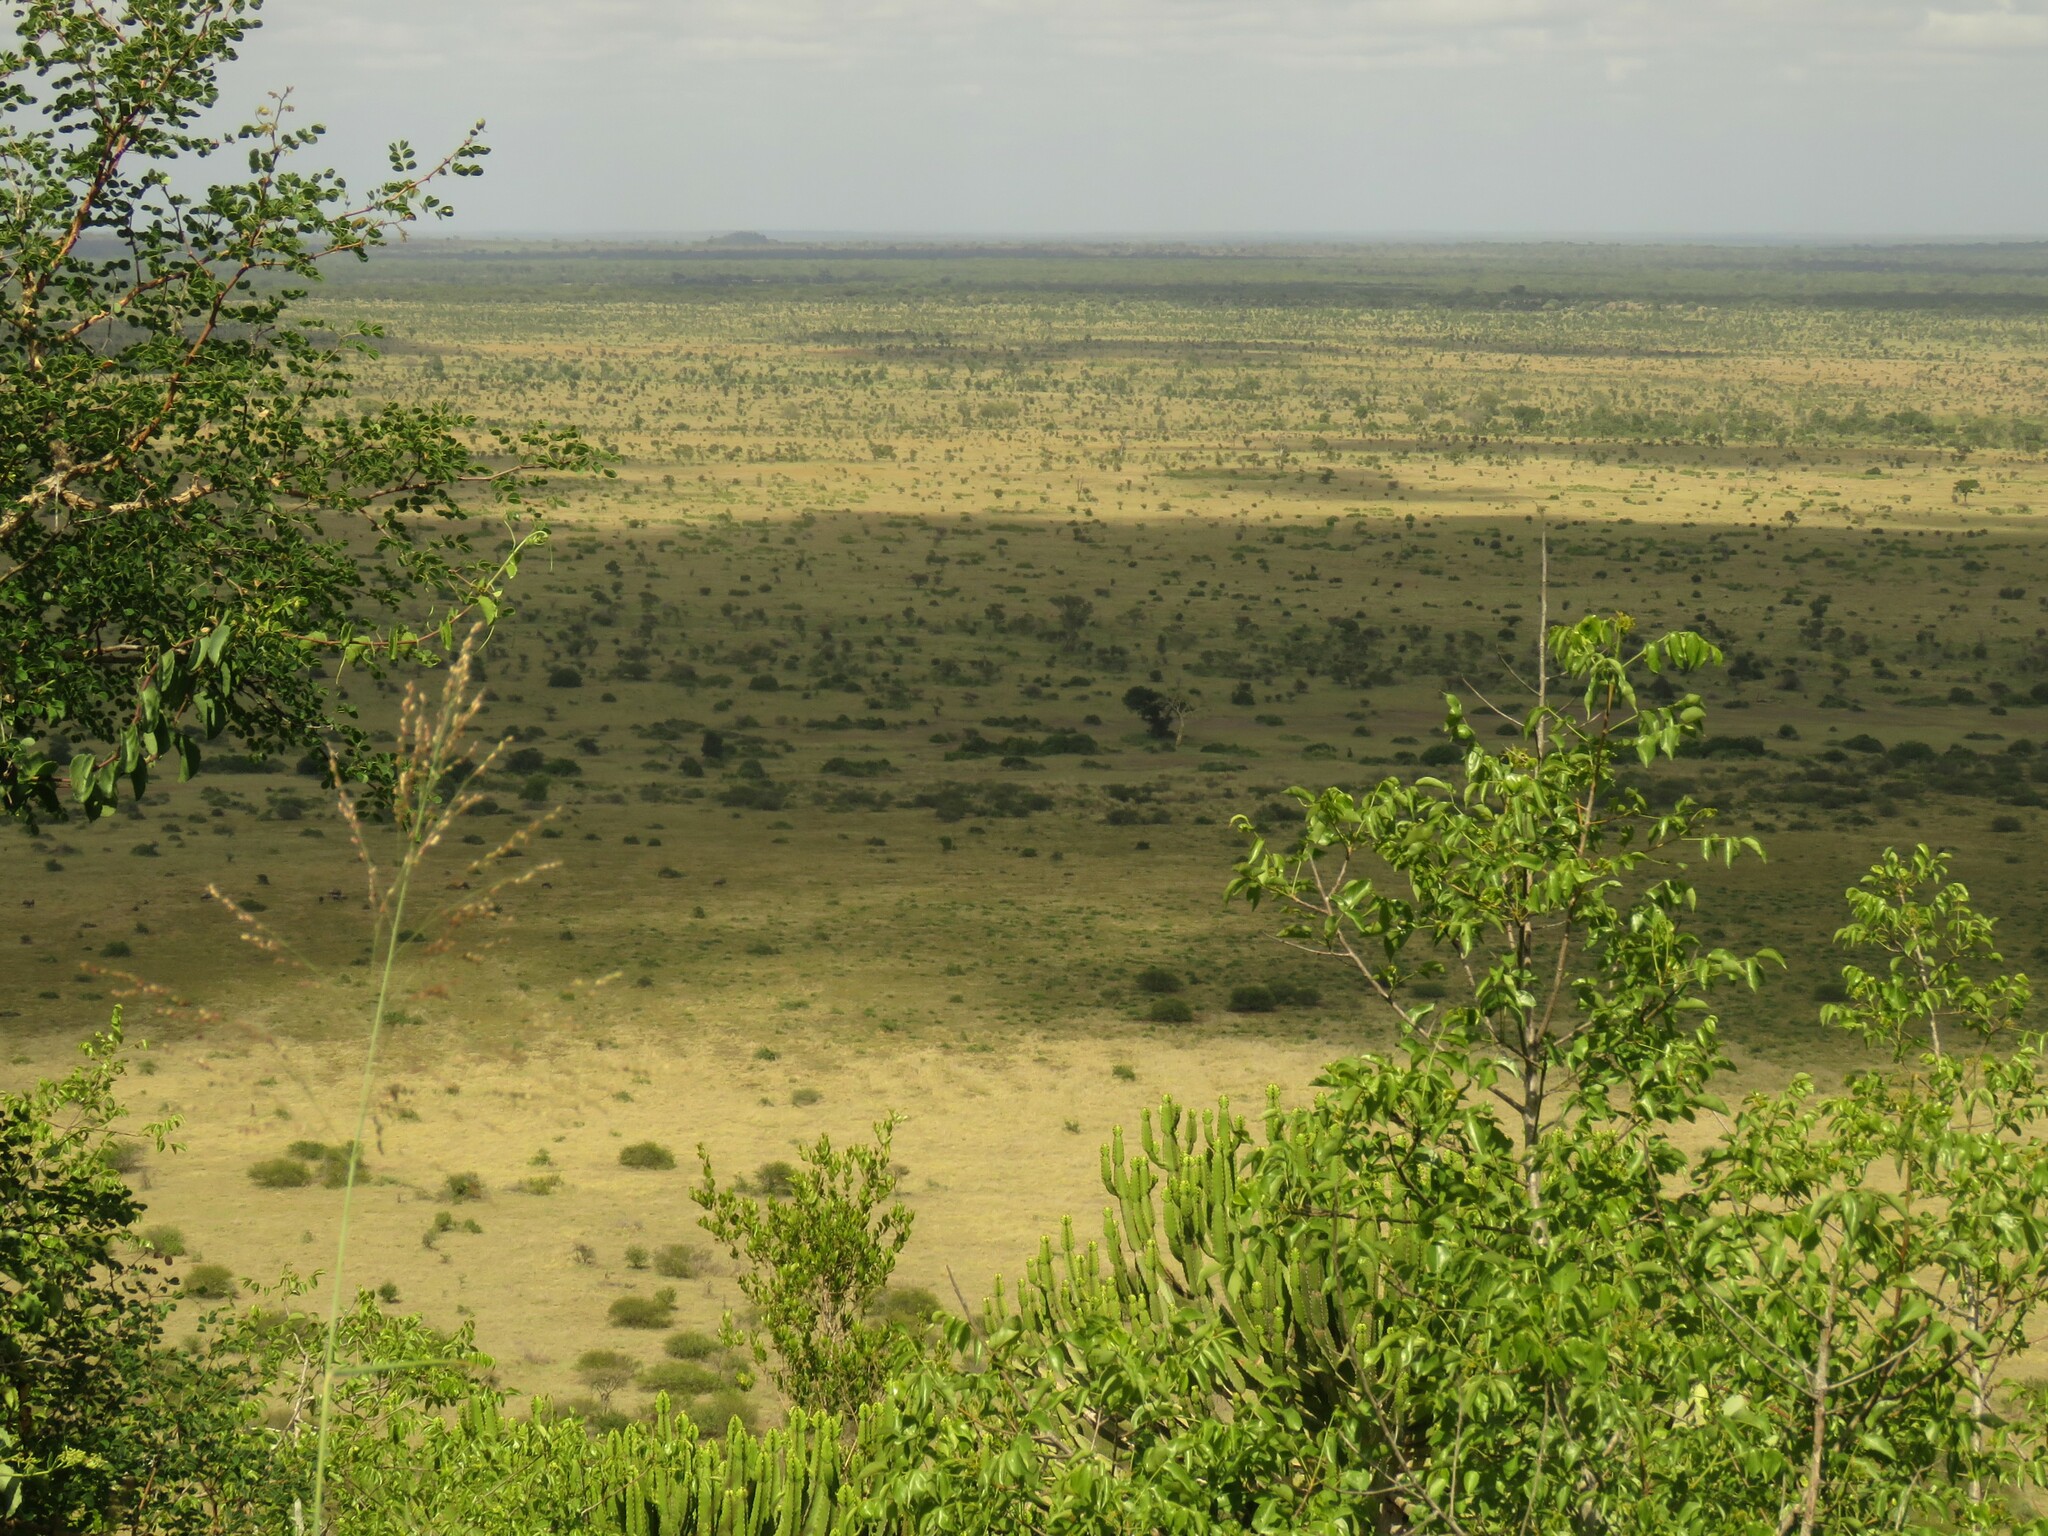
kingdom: Plantae
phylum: Tracheophyta
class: Magnoliopsida
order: Malpighiales
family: Euphorbiaceae
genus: Euphorbia
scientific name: Euphorbia confinalis
